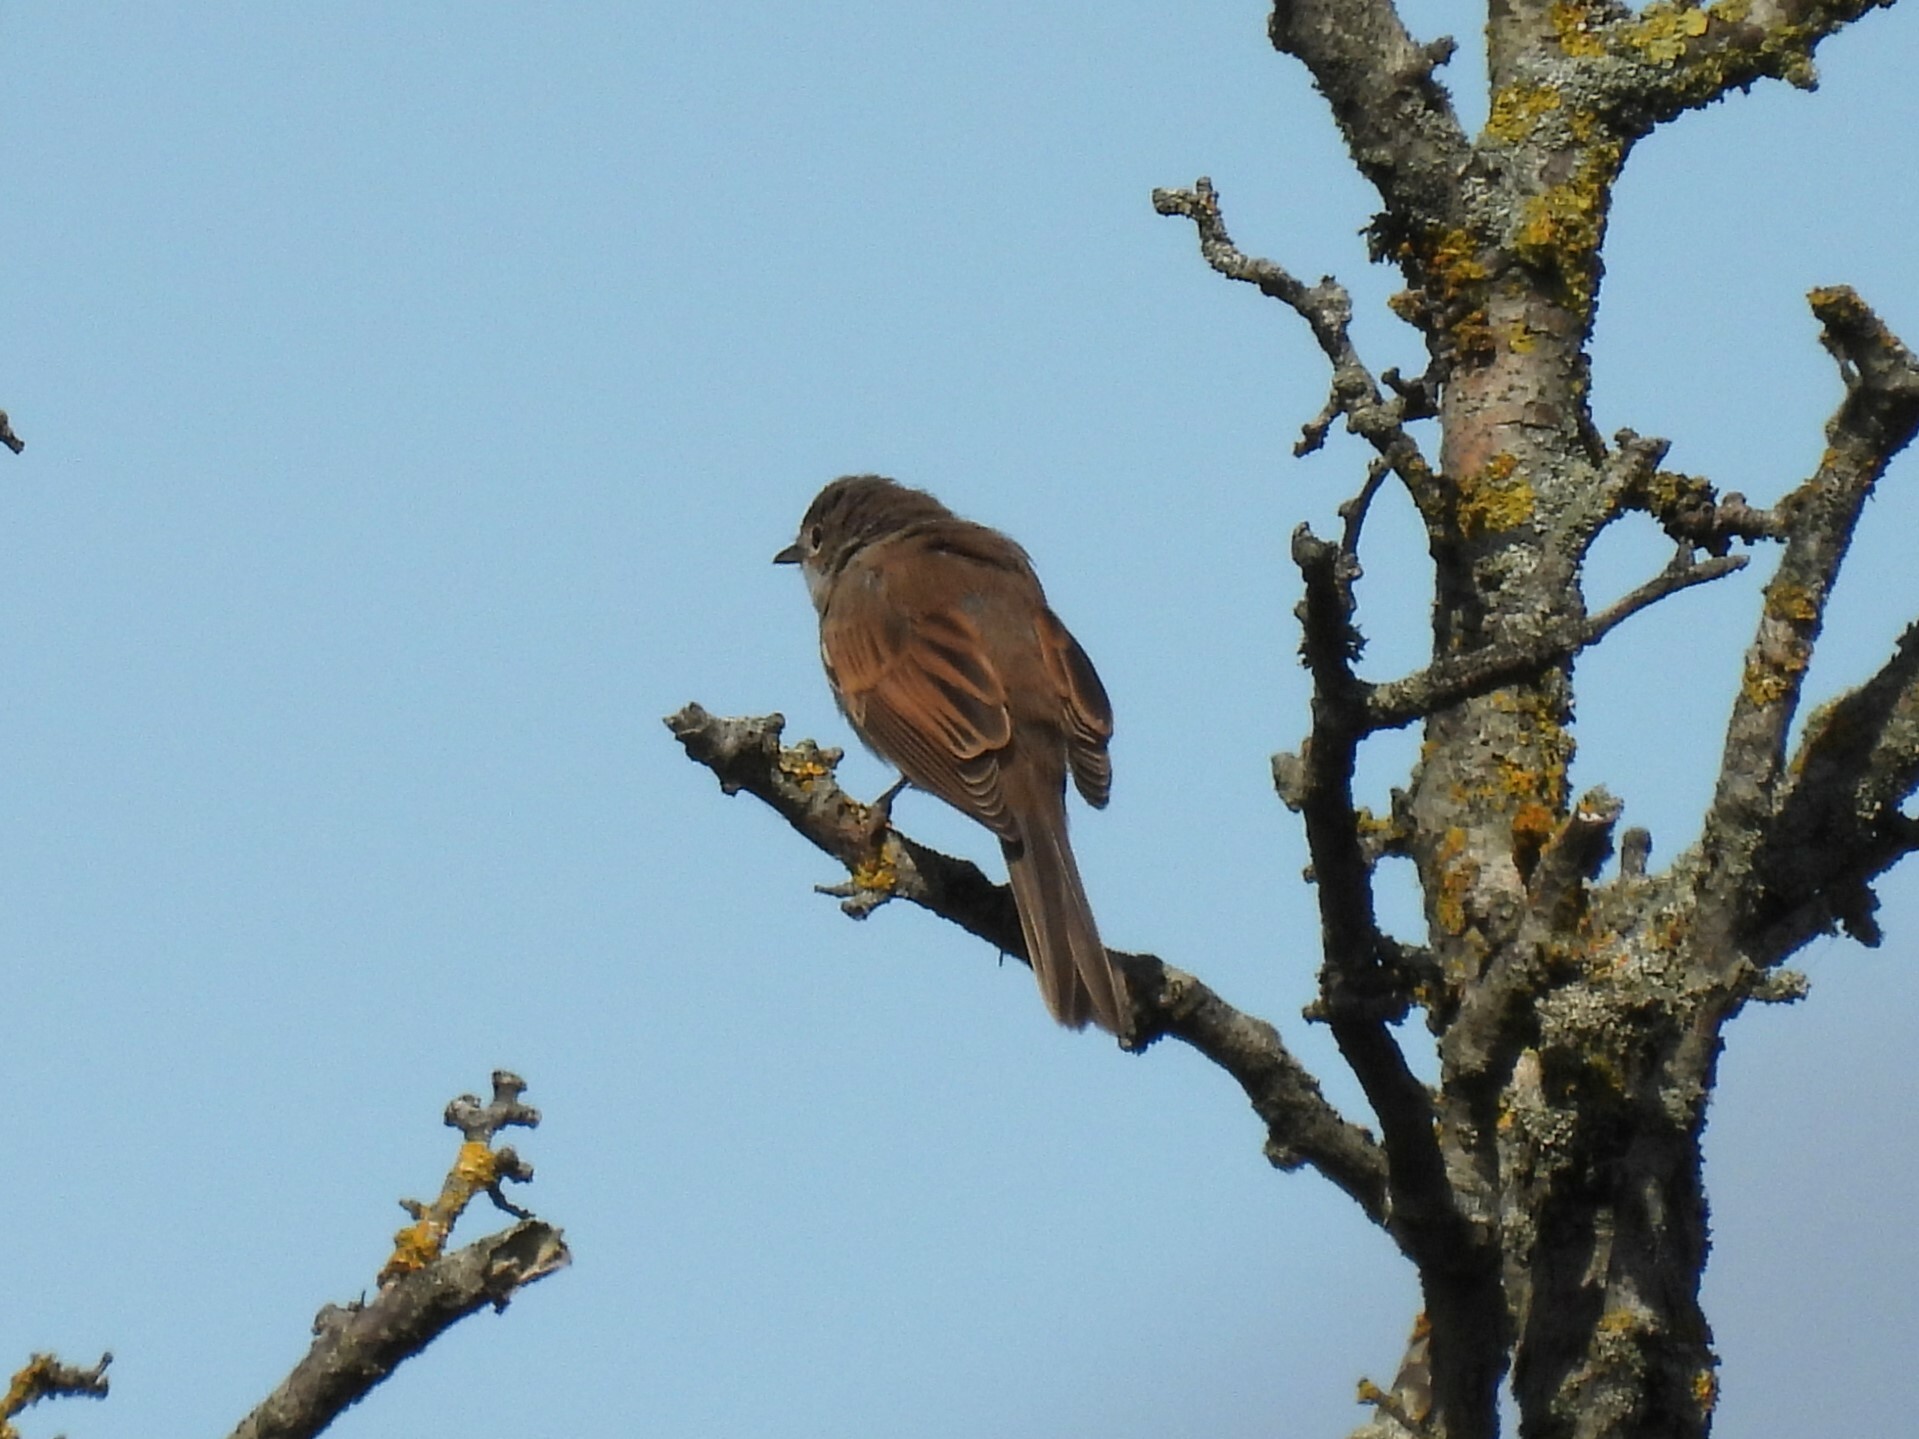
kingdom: Animalia
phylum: Chordata
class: Aves
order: Passeriformes
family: Sylviidae
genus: Sylvia
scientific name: Sylvia communis
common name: Common whitethroat
